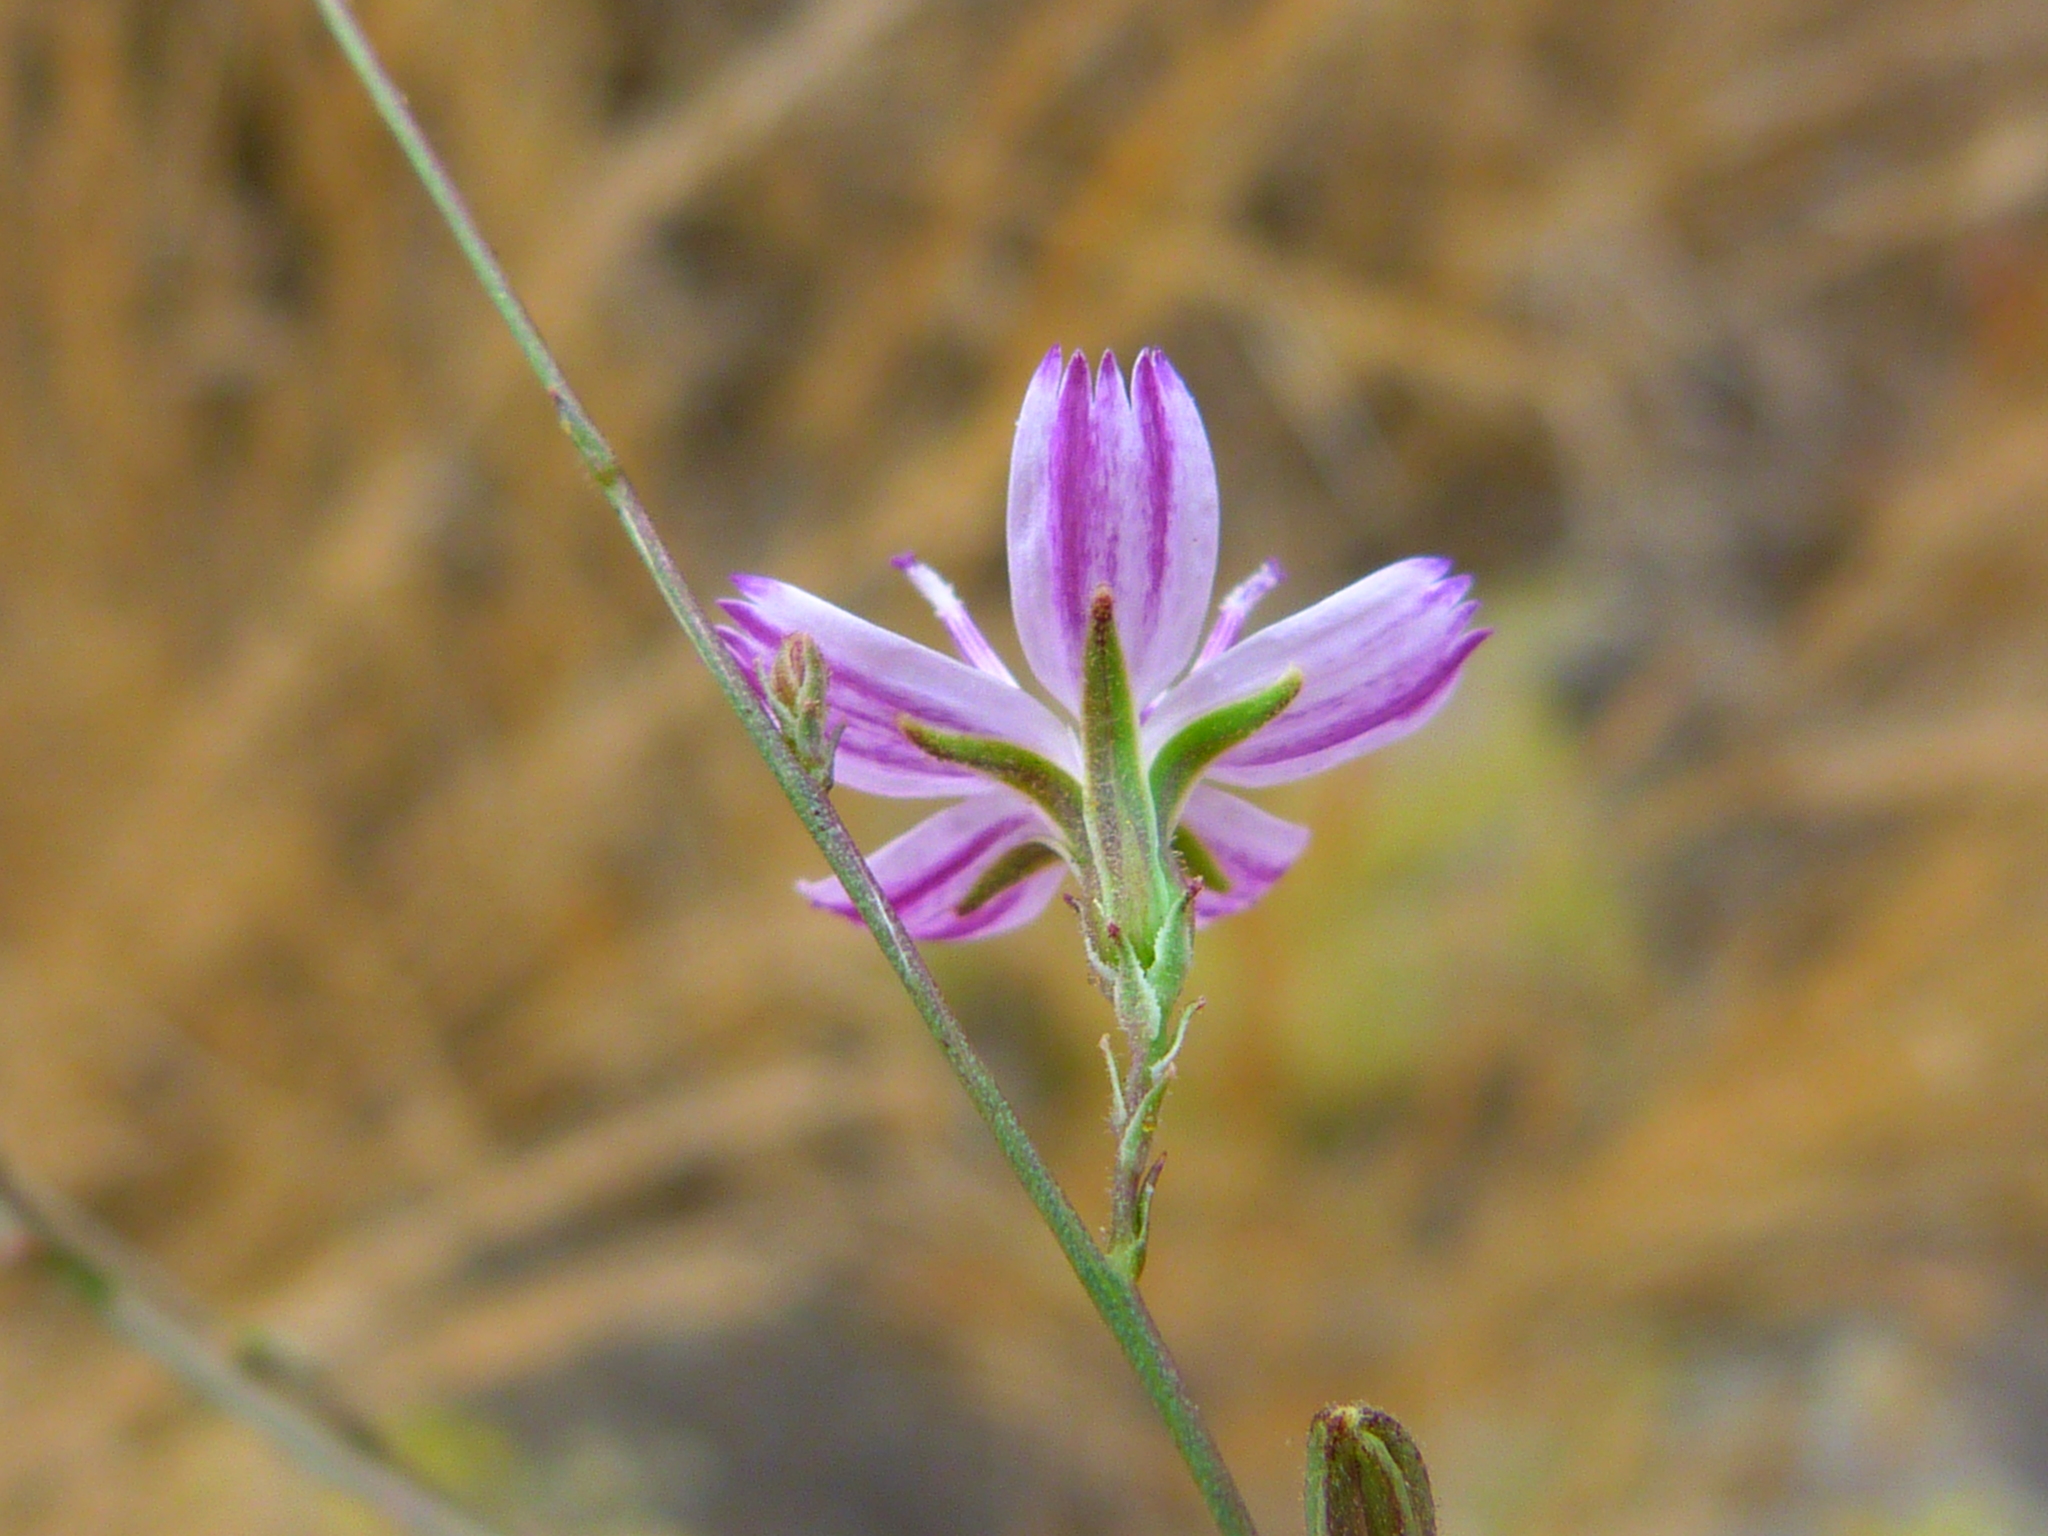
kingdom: Plantae
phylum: Tracheophyta
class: Magnoliopsida
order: Asterales
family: Asteraceae
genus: Stephanomeria
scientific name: Stephanomeria virgata
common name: Virgate wirelettuce
